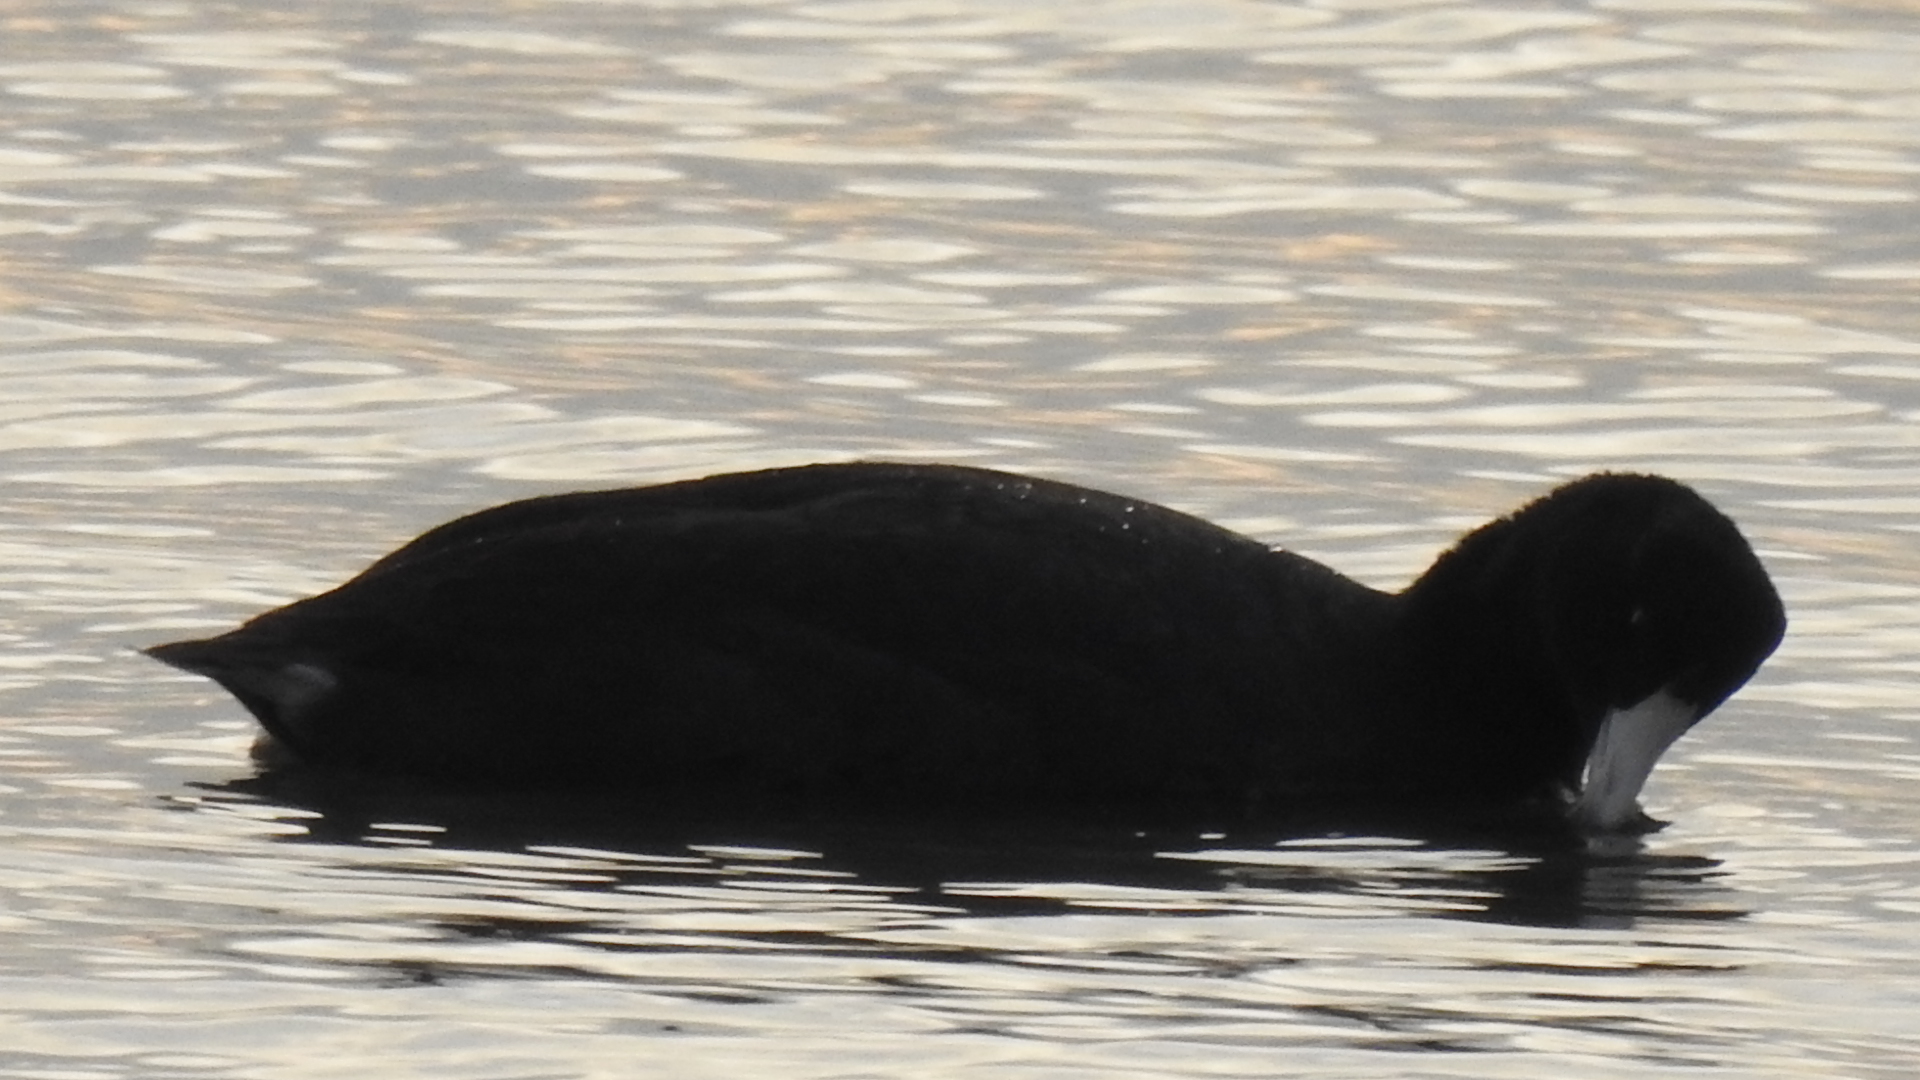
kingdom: Animalia
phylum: Chordata
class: Aves
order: Gruiformes
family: Rallidae
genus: Fulica
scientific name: Fulica americana
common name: American coot
